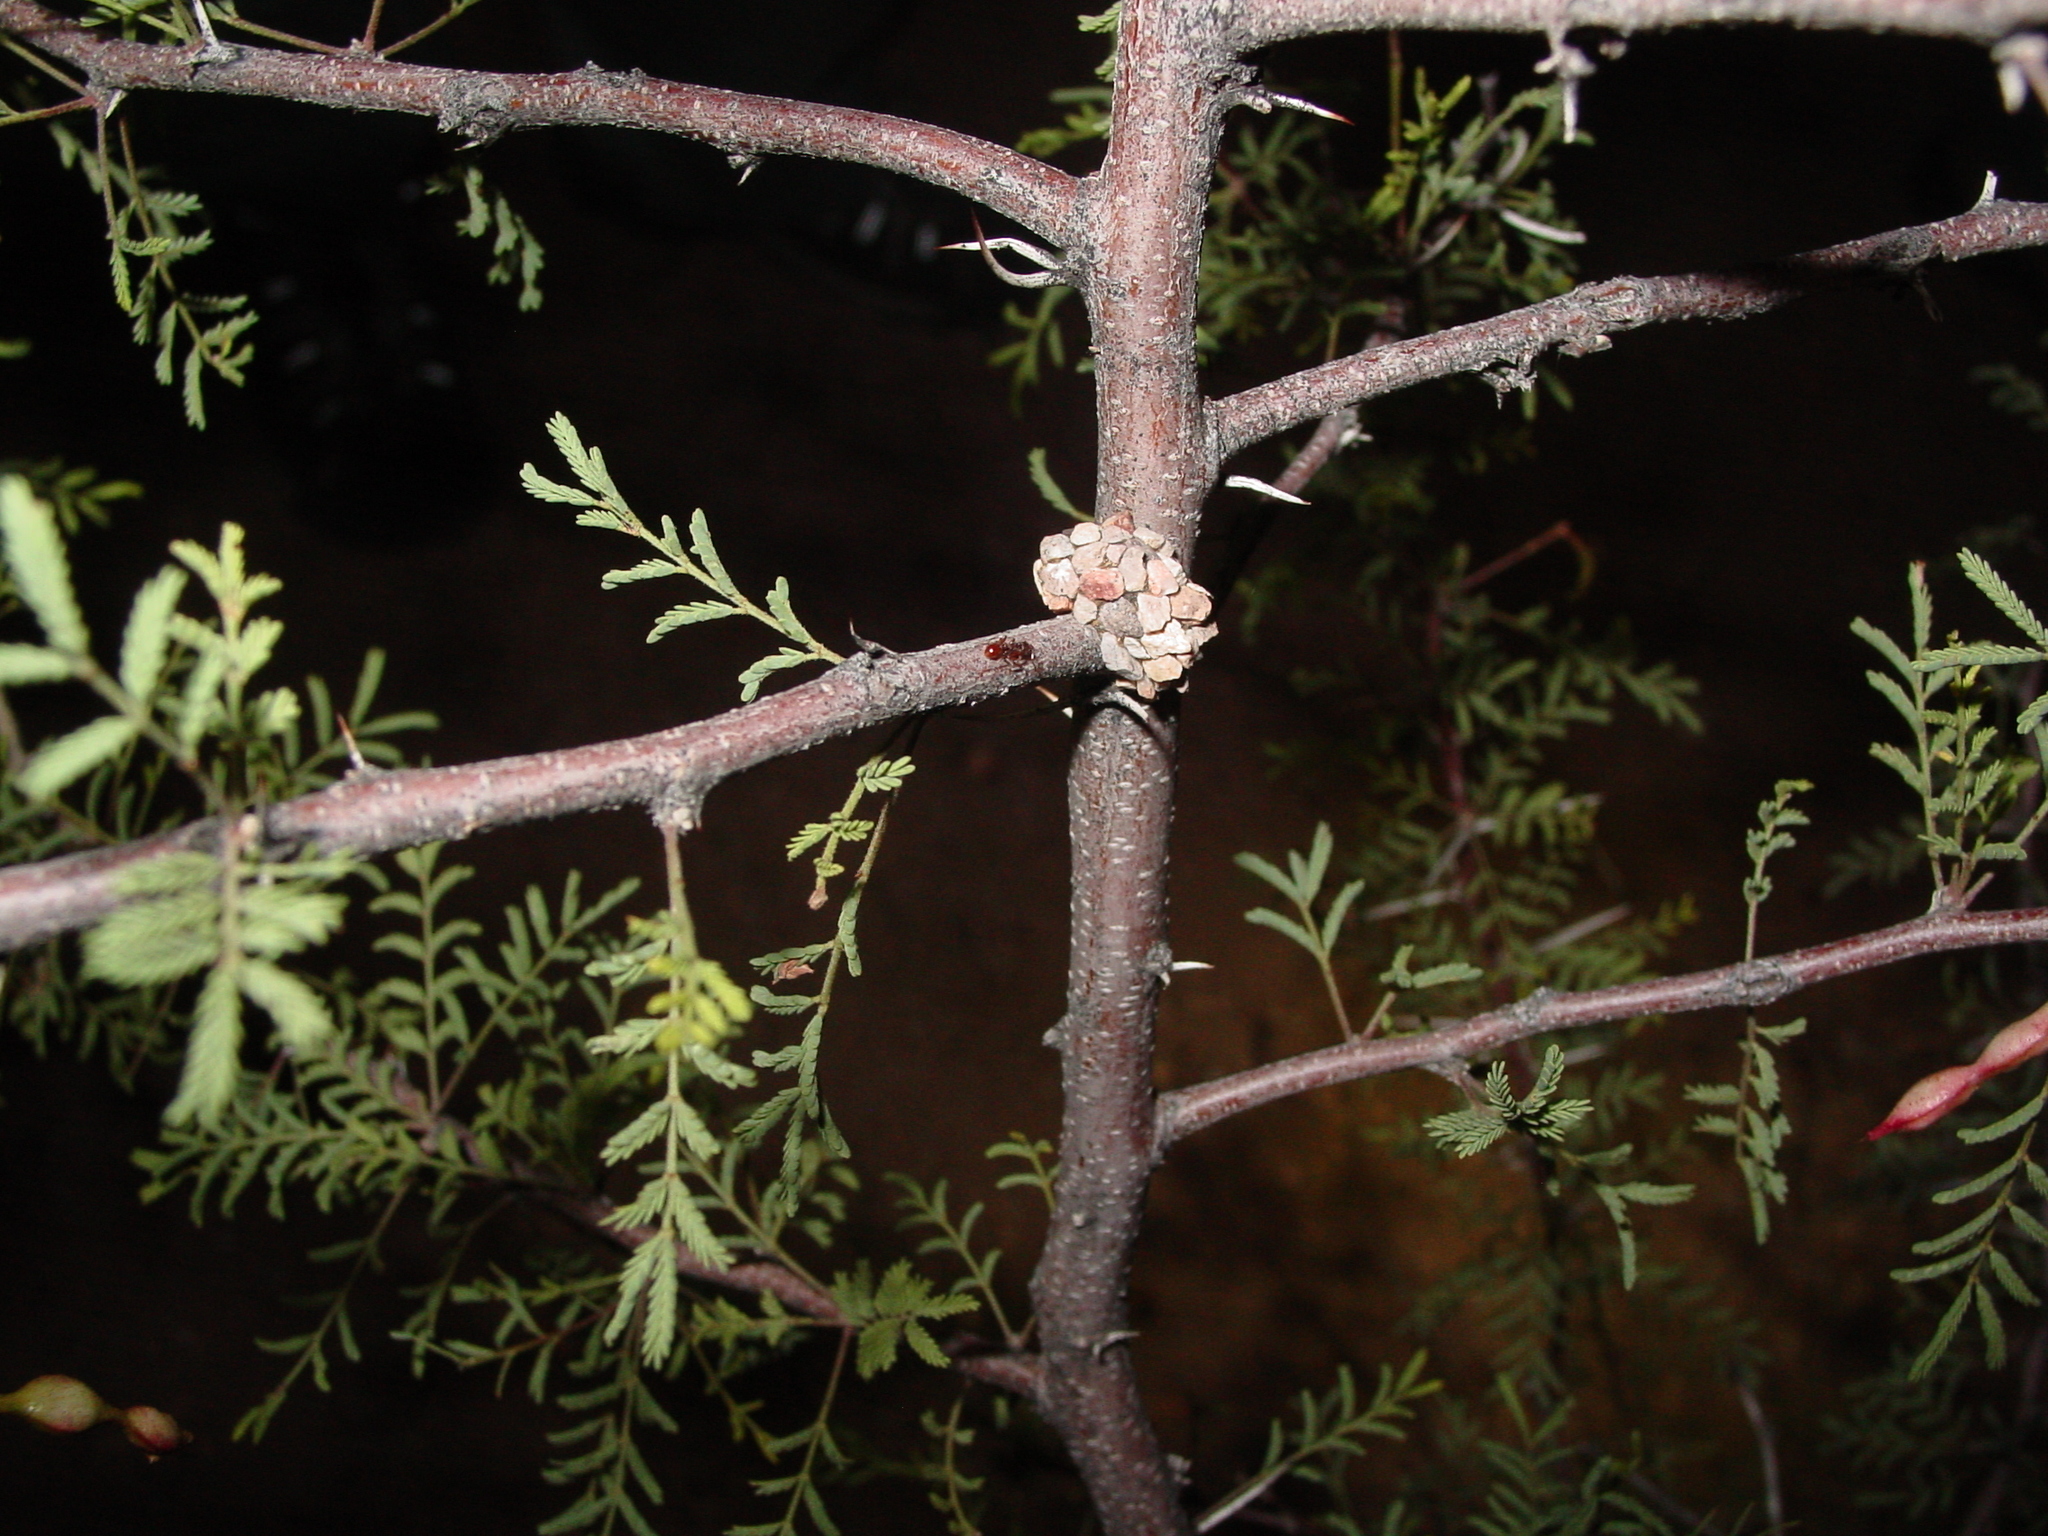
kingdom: Animalia
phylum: Arthropoda
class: Insecta
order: Hymenoptera
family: Megachilidae
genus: Dianthidium
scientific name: Dianthidium
